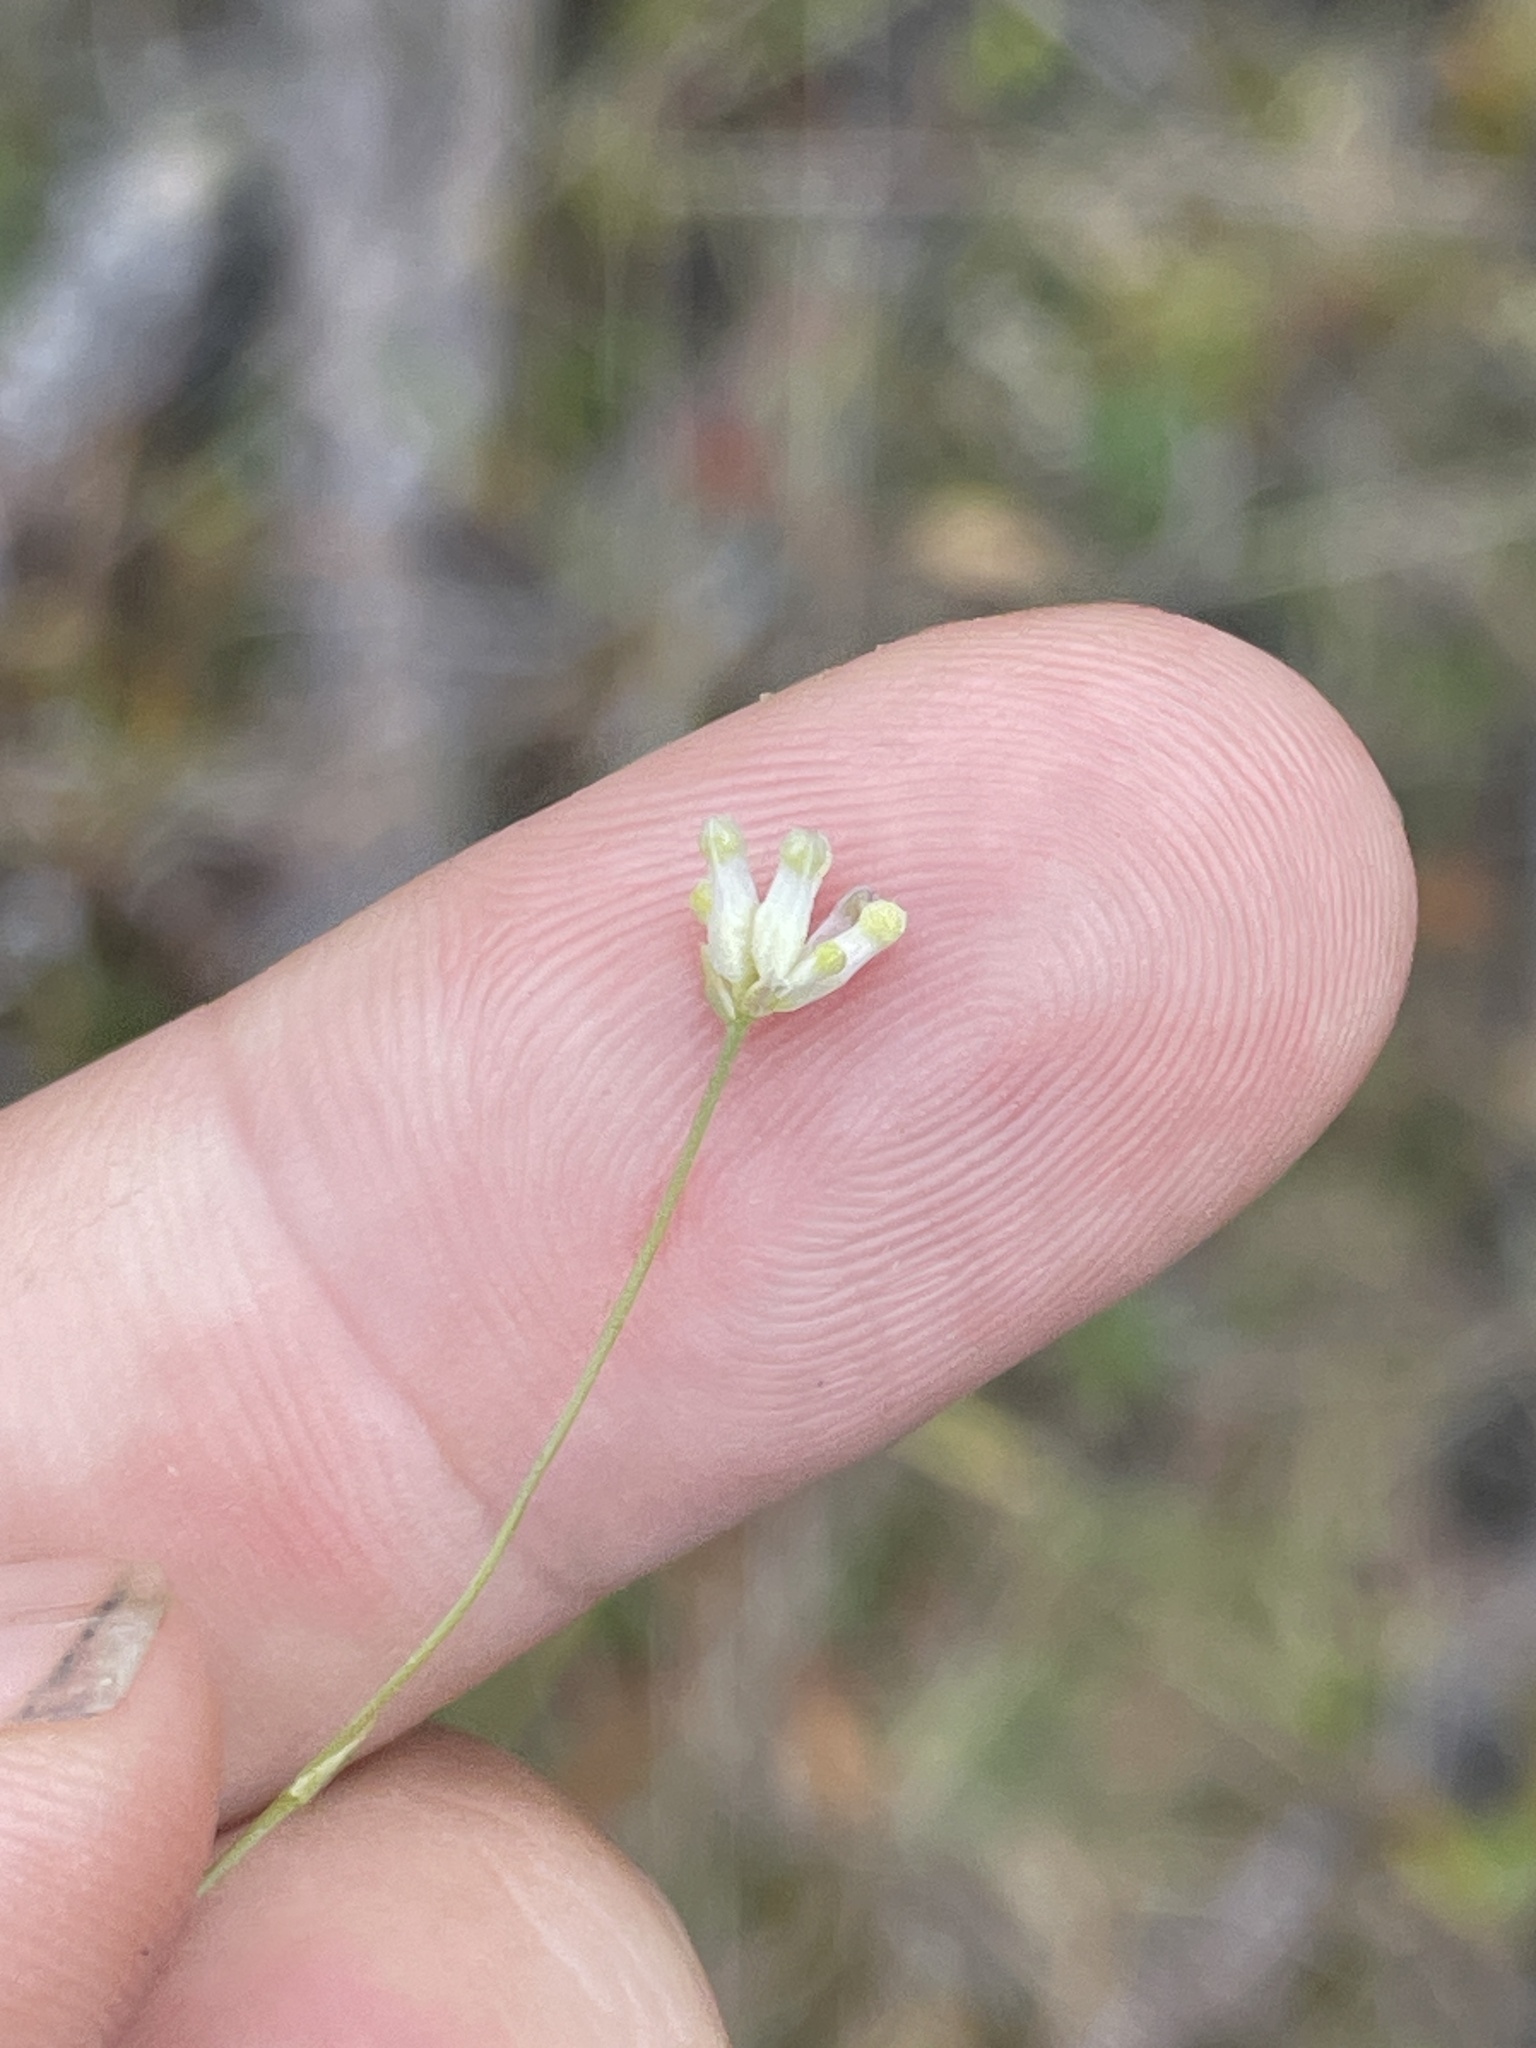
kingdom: Plantae
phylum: Tracheophyta
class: Liliopsida
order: Dioscoreales
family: Burmanniaceae
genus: Burmannia
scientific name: Burmannia capitata
